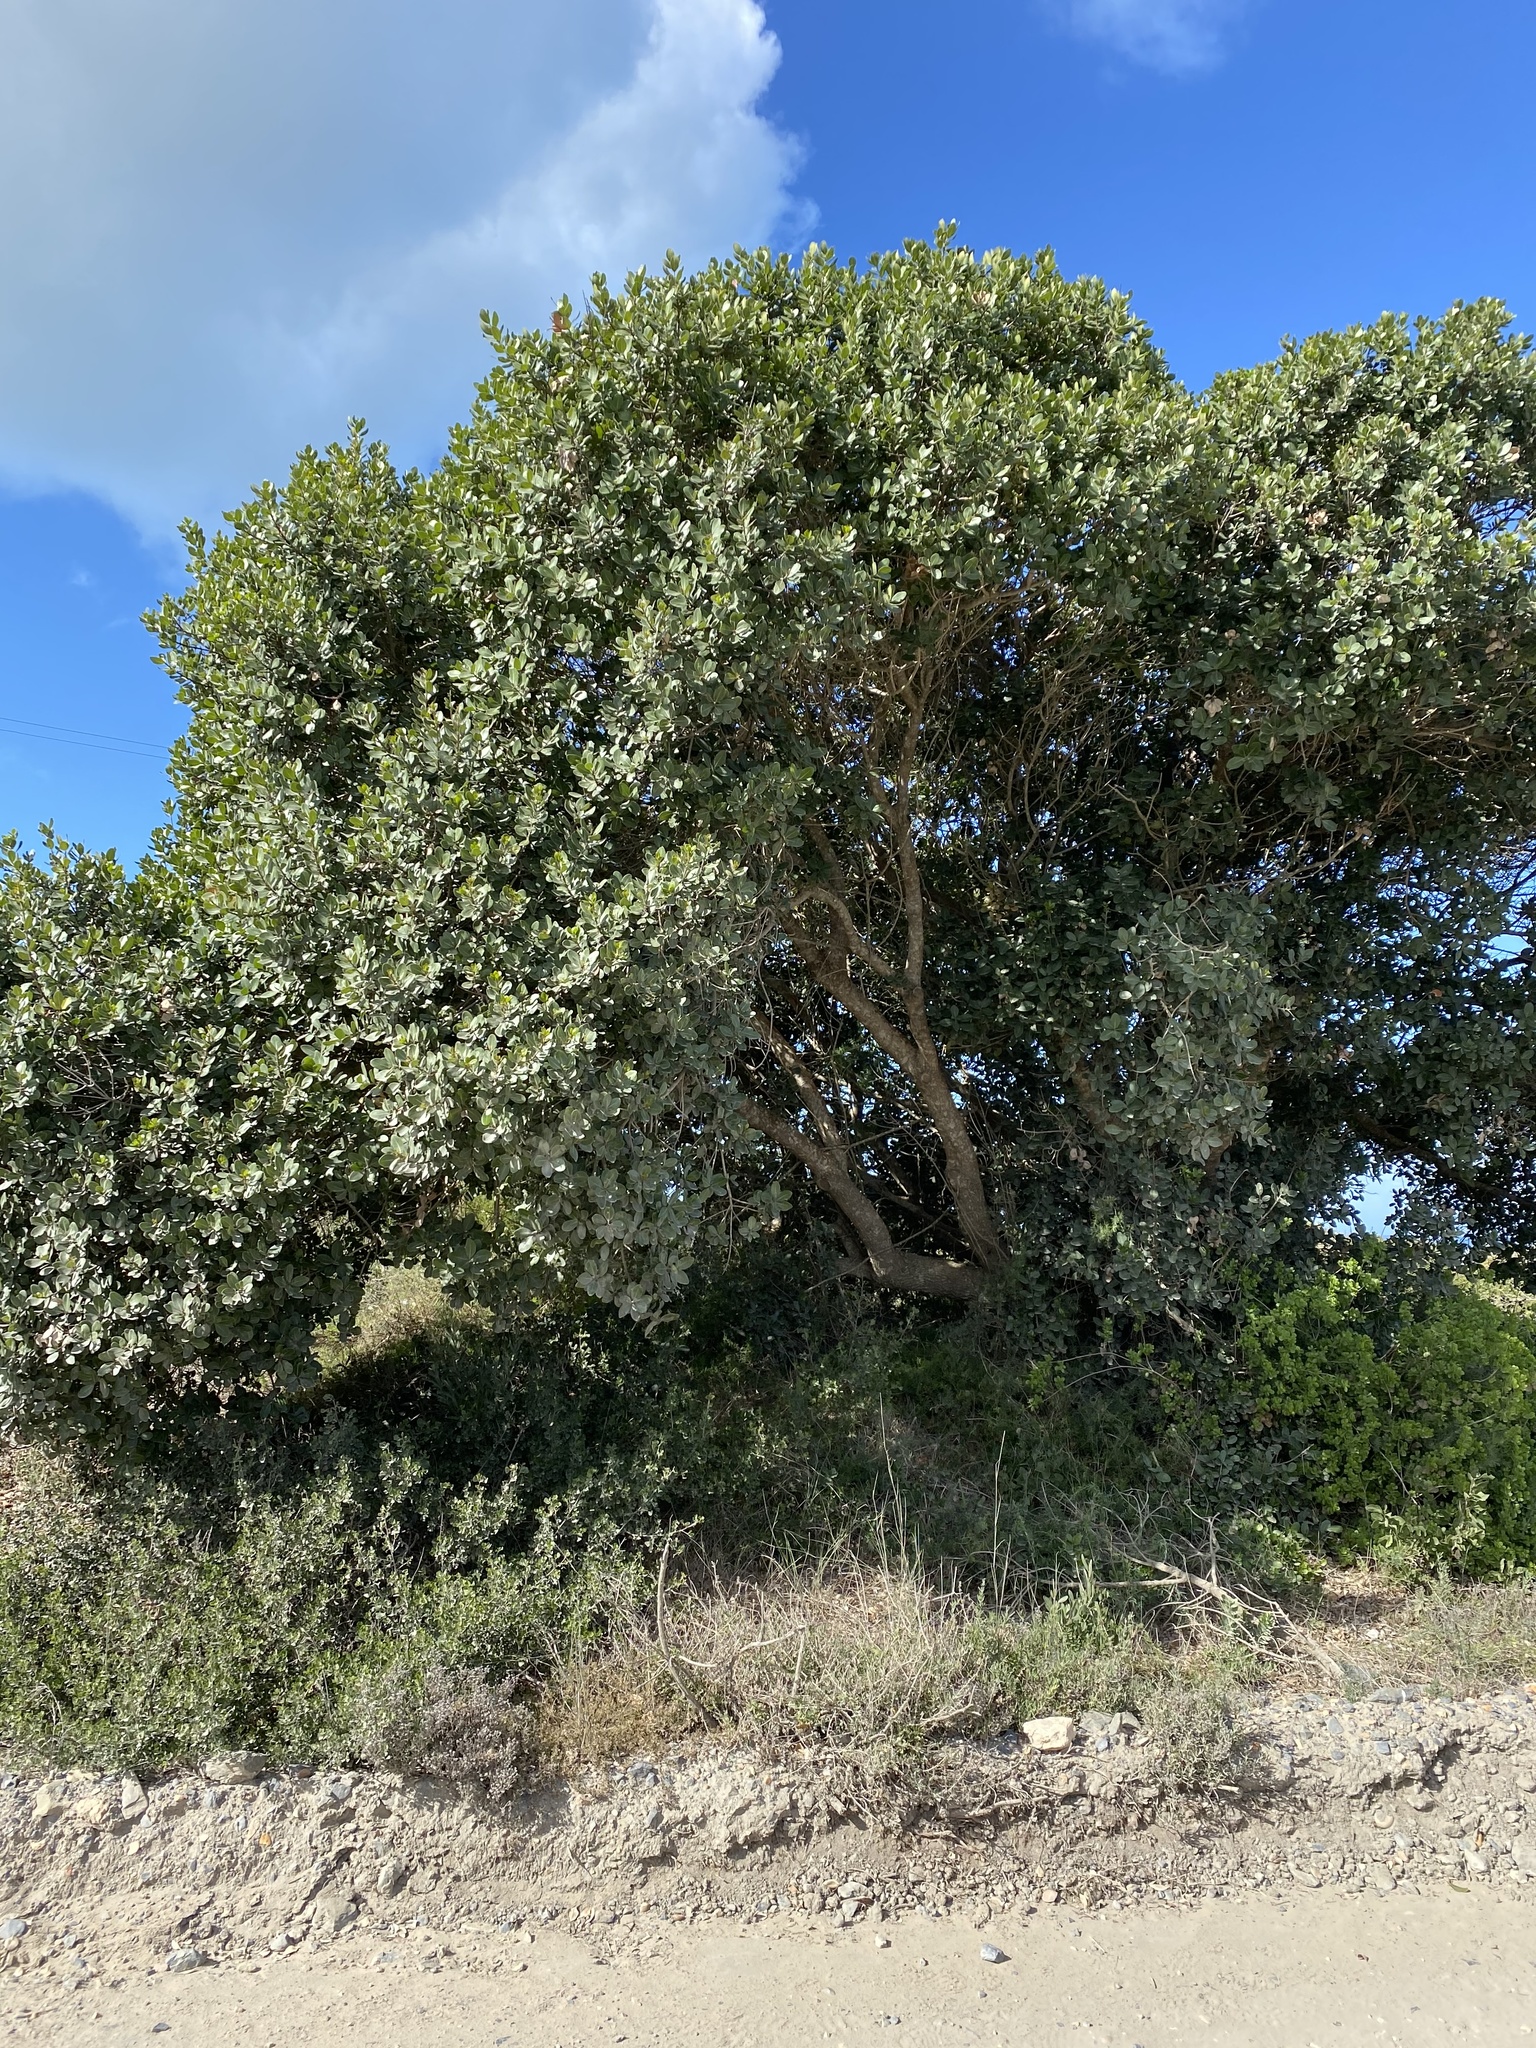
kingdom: Plantae
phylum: Tracheophyta
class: Magnoliopsida
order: Ericales
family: Sapotaceae
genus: Sideroxylon
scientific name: Sideroxylon inerme
